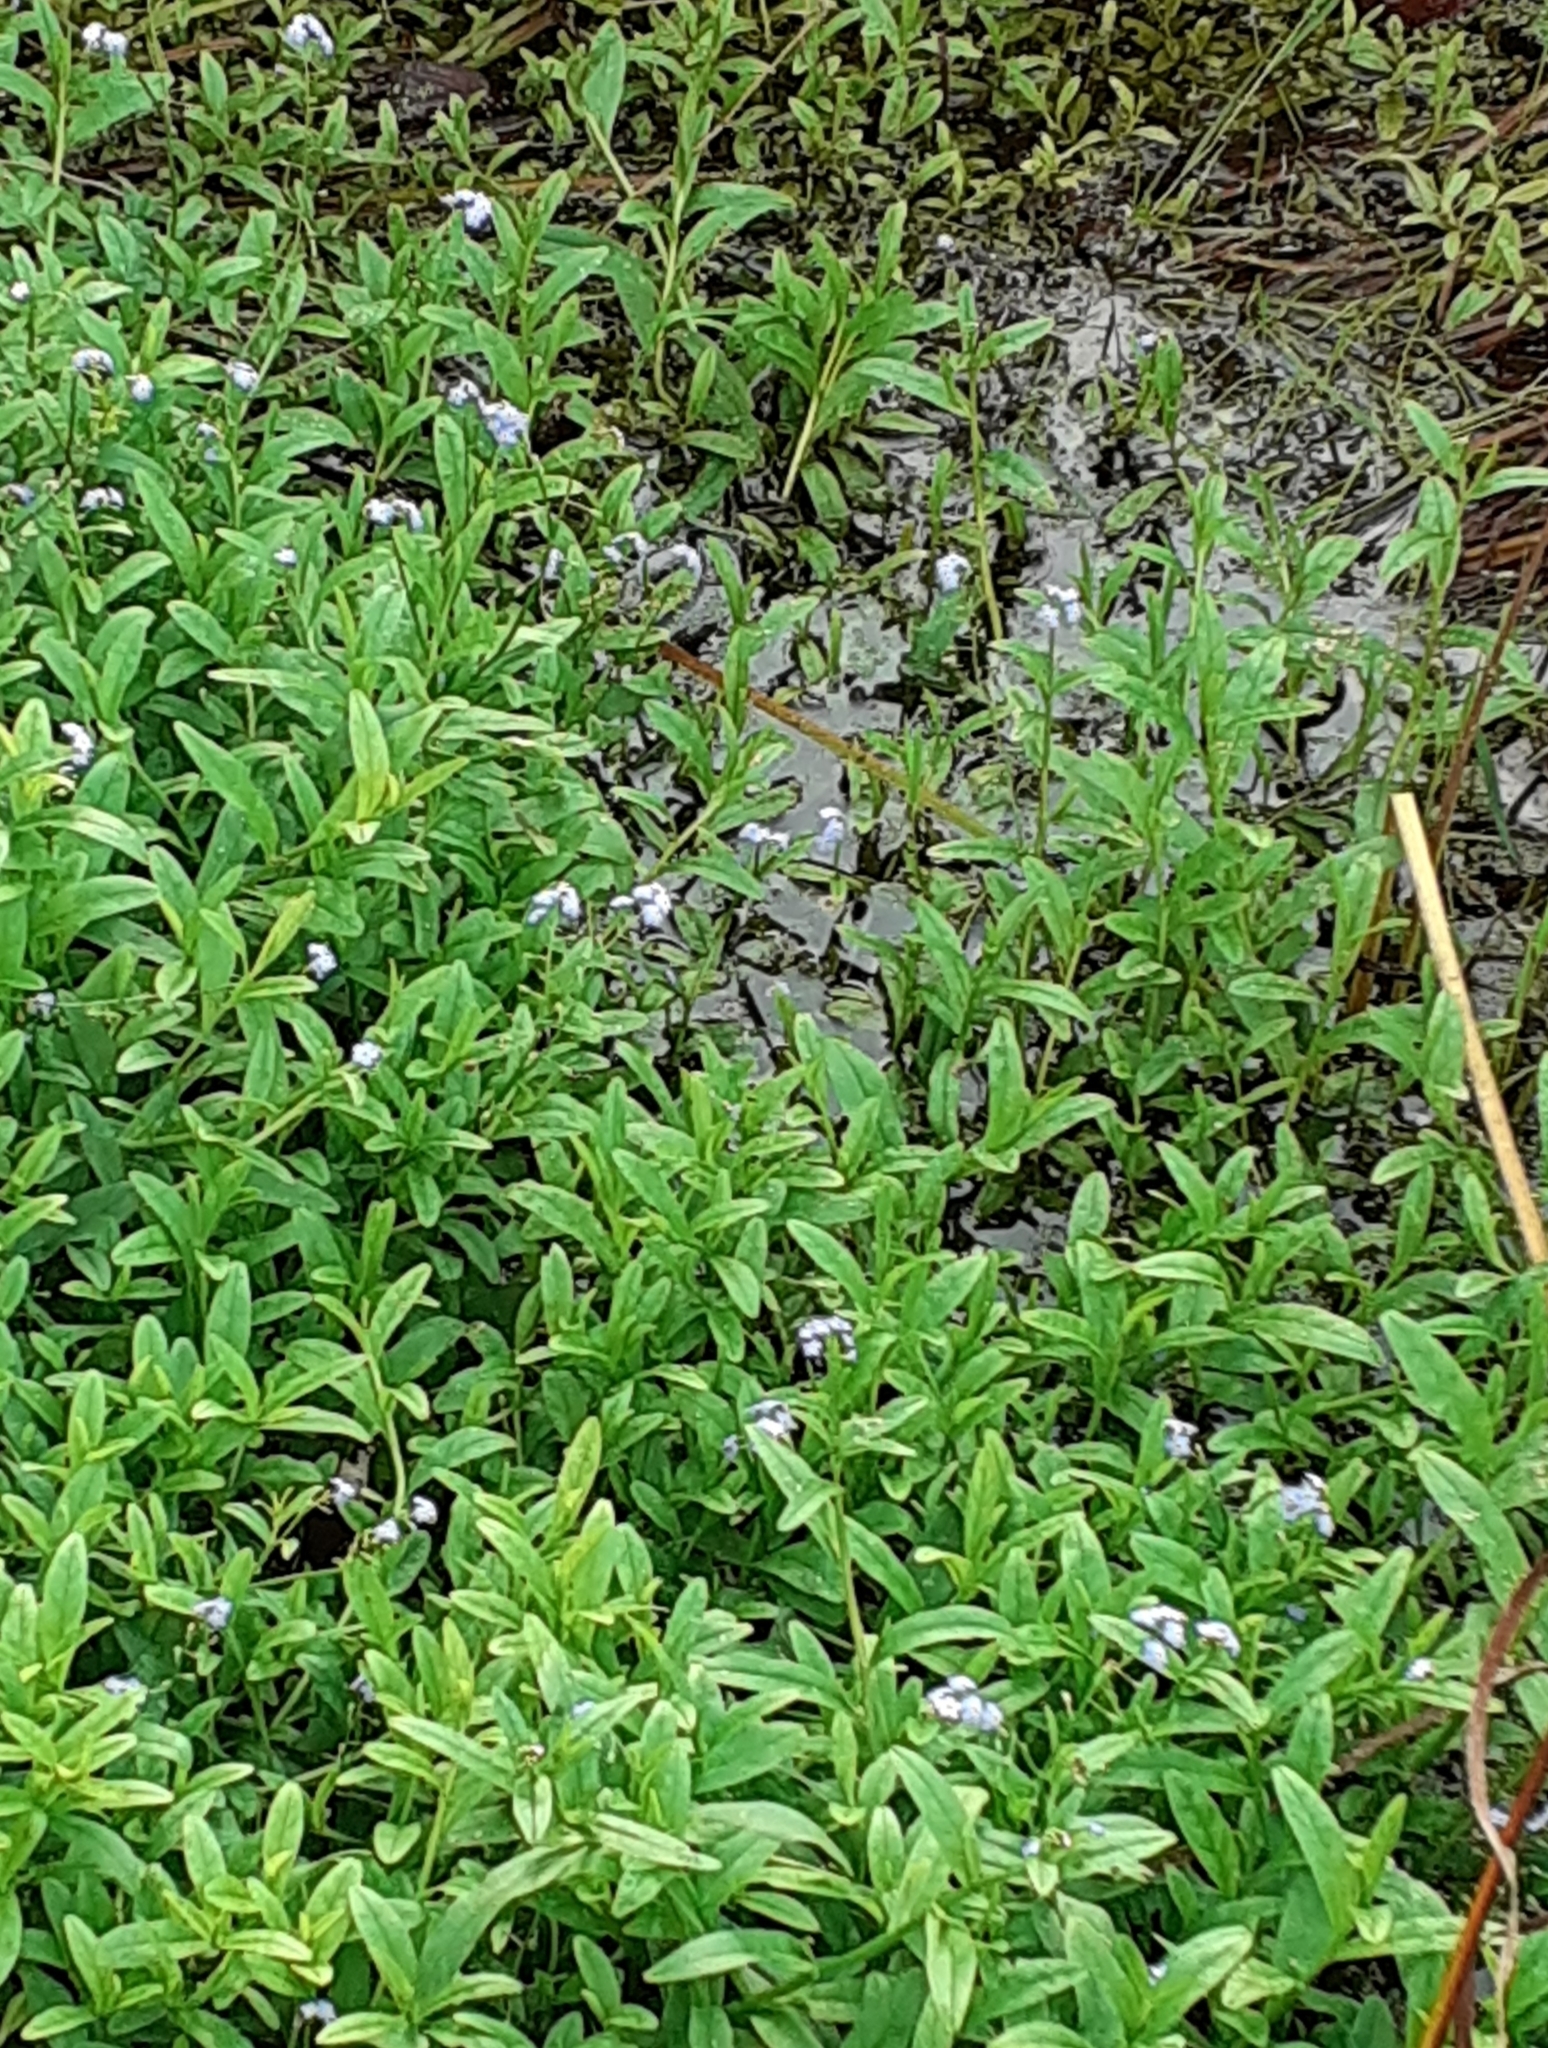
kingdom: Plantae
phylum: Tracheophyta
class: Magnoliopsida
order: Boraginales
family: Boraginaceae
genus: Myosotis
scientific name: Myosotis scorpioides
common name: Water forget-me-not
